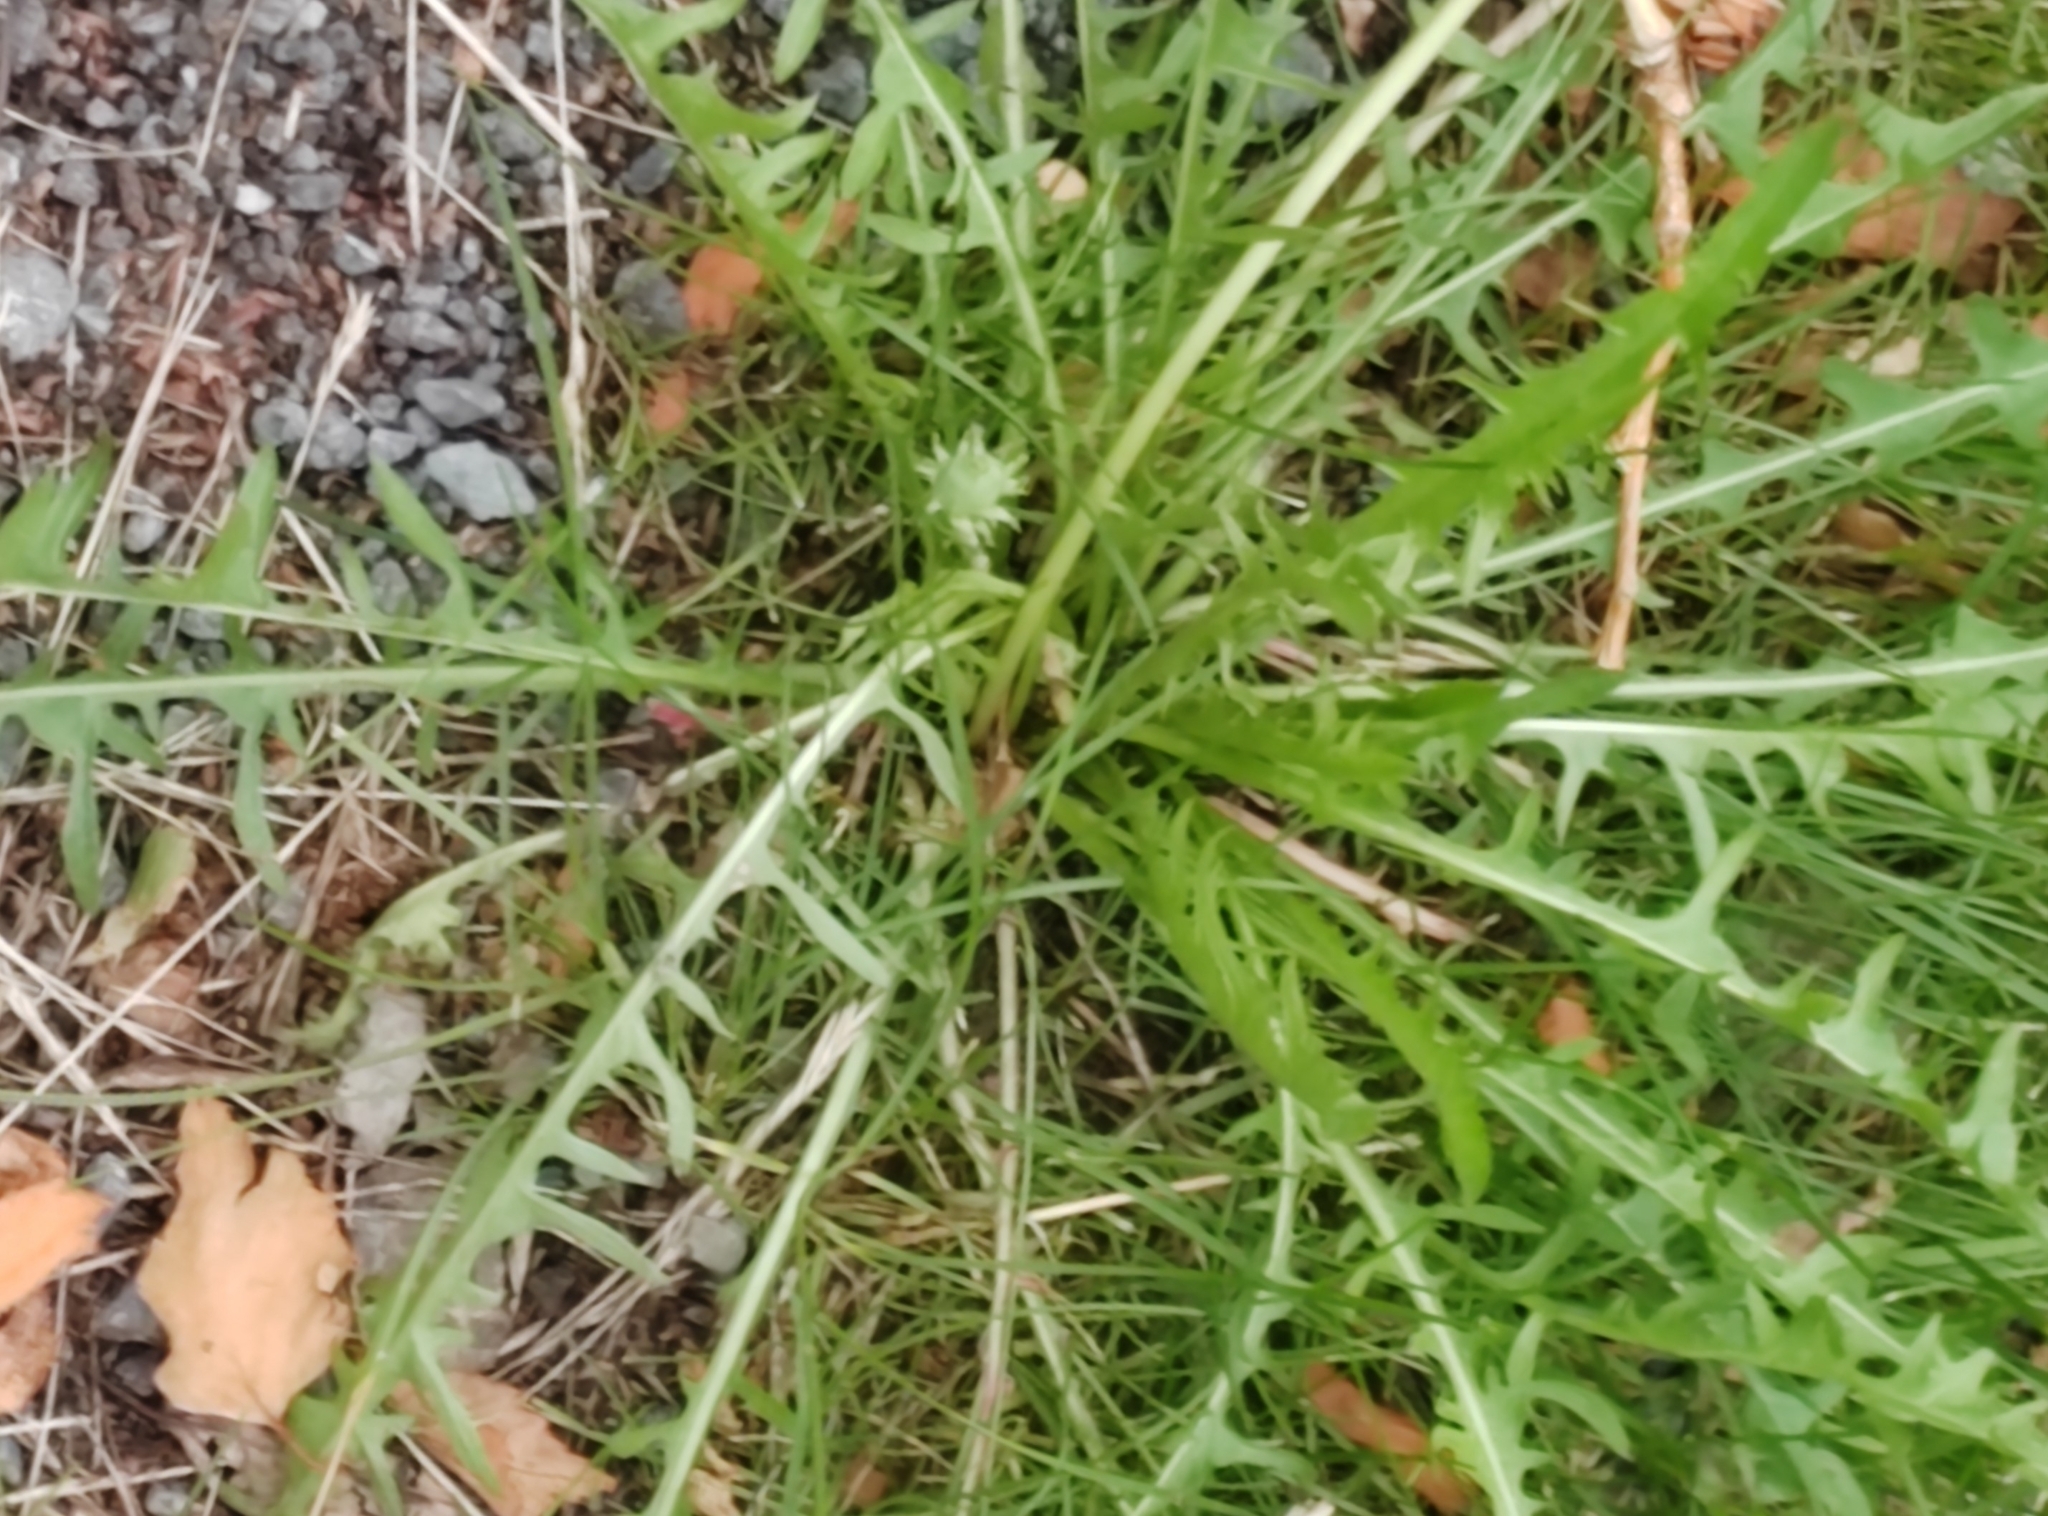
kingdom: Plantae
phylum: Tracheophyta
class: Magnoliopsida
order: Asterales
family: Asteraceae
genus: Taraxacum
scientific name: Taraxacum scariosum
